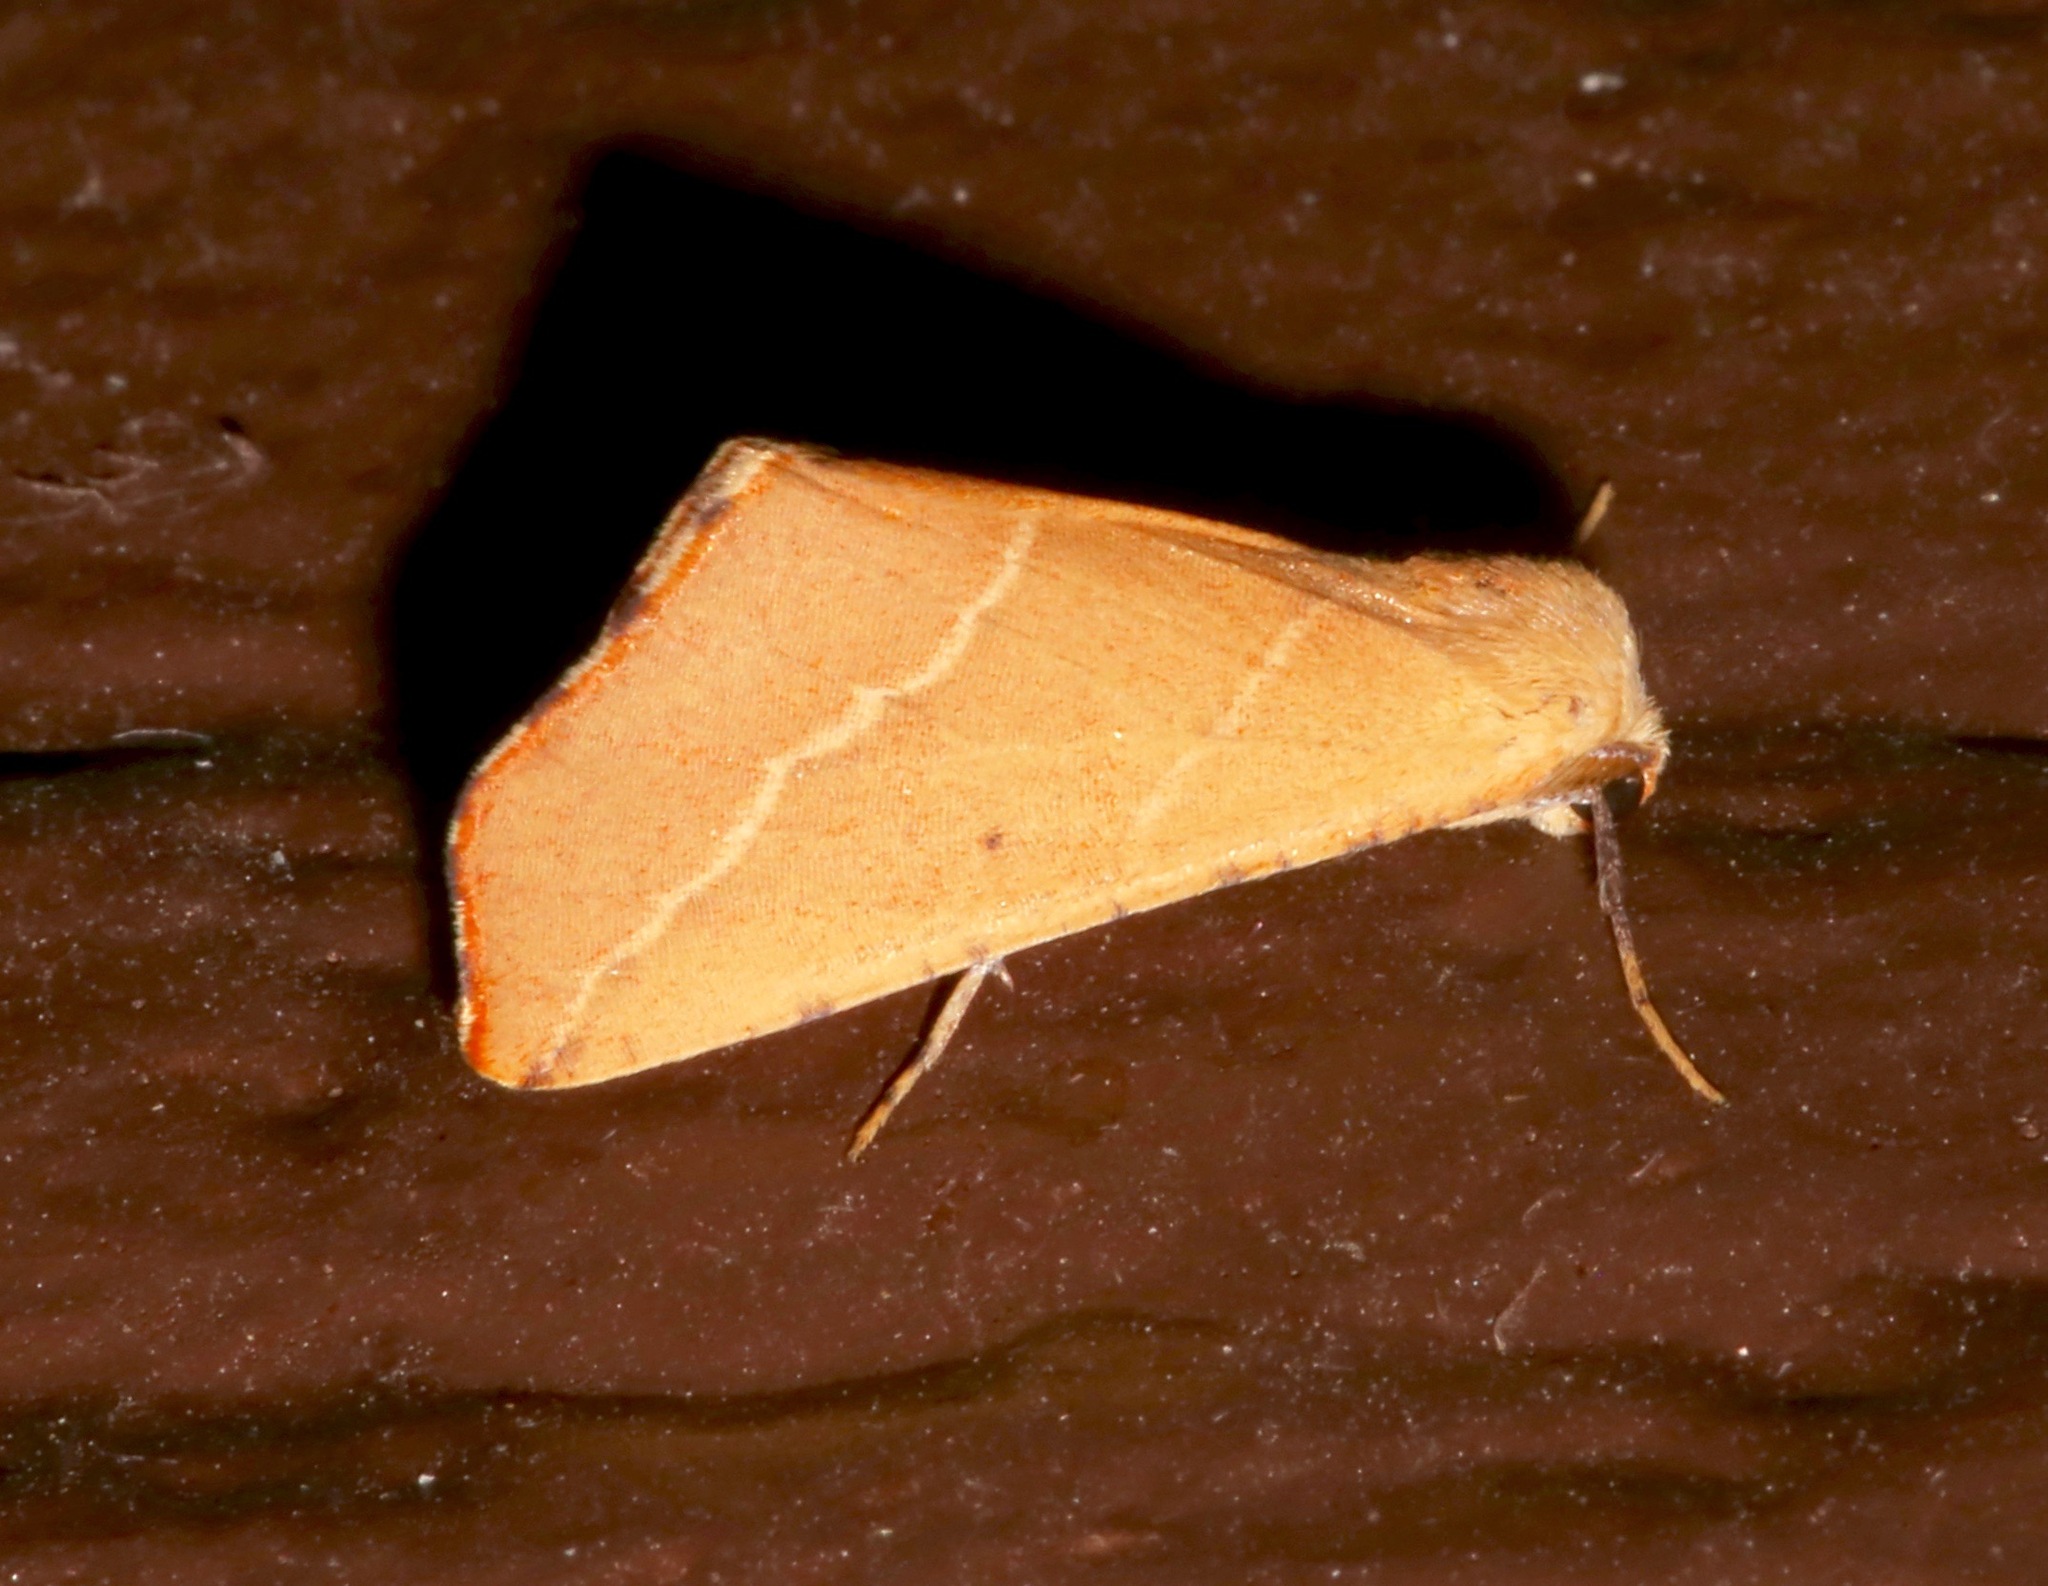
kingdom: Animalia
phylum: Arthropoda
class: Insecta
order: Lepidoptera
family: Geometridae
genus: Sicya
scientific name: Sicya morsicaria
